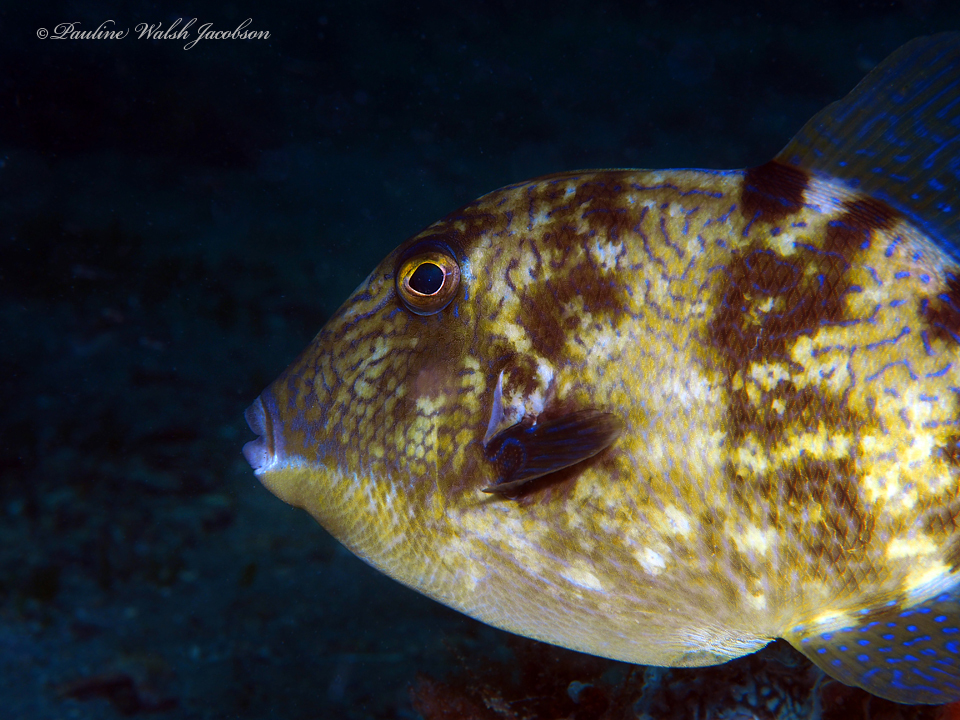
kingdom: Animalia
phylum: Chordata
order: Tetraodontiformes
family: Balistidae
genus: Balistes
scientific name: Balistes capriscus
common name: Grey triggerfish
